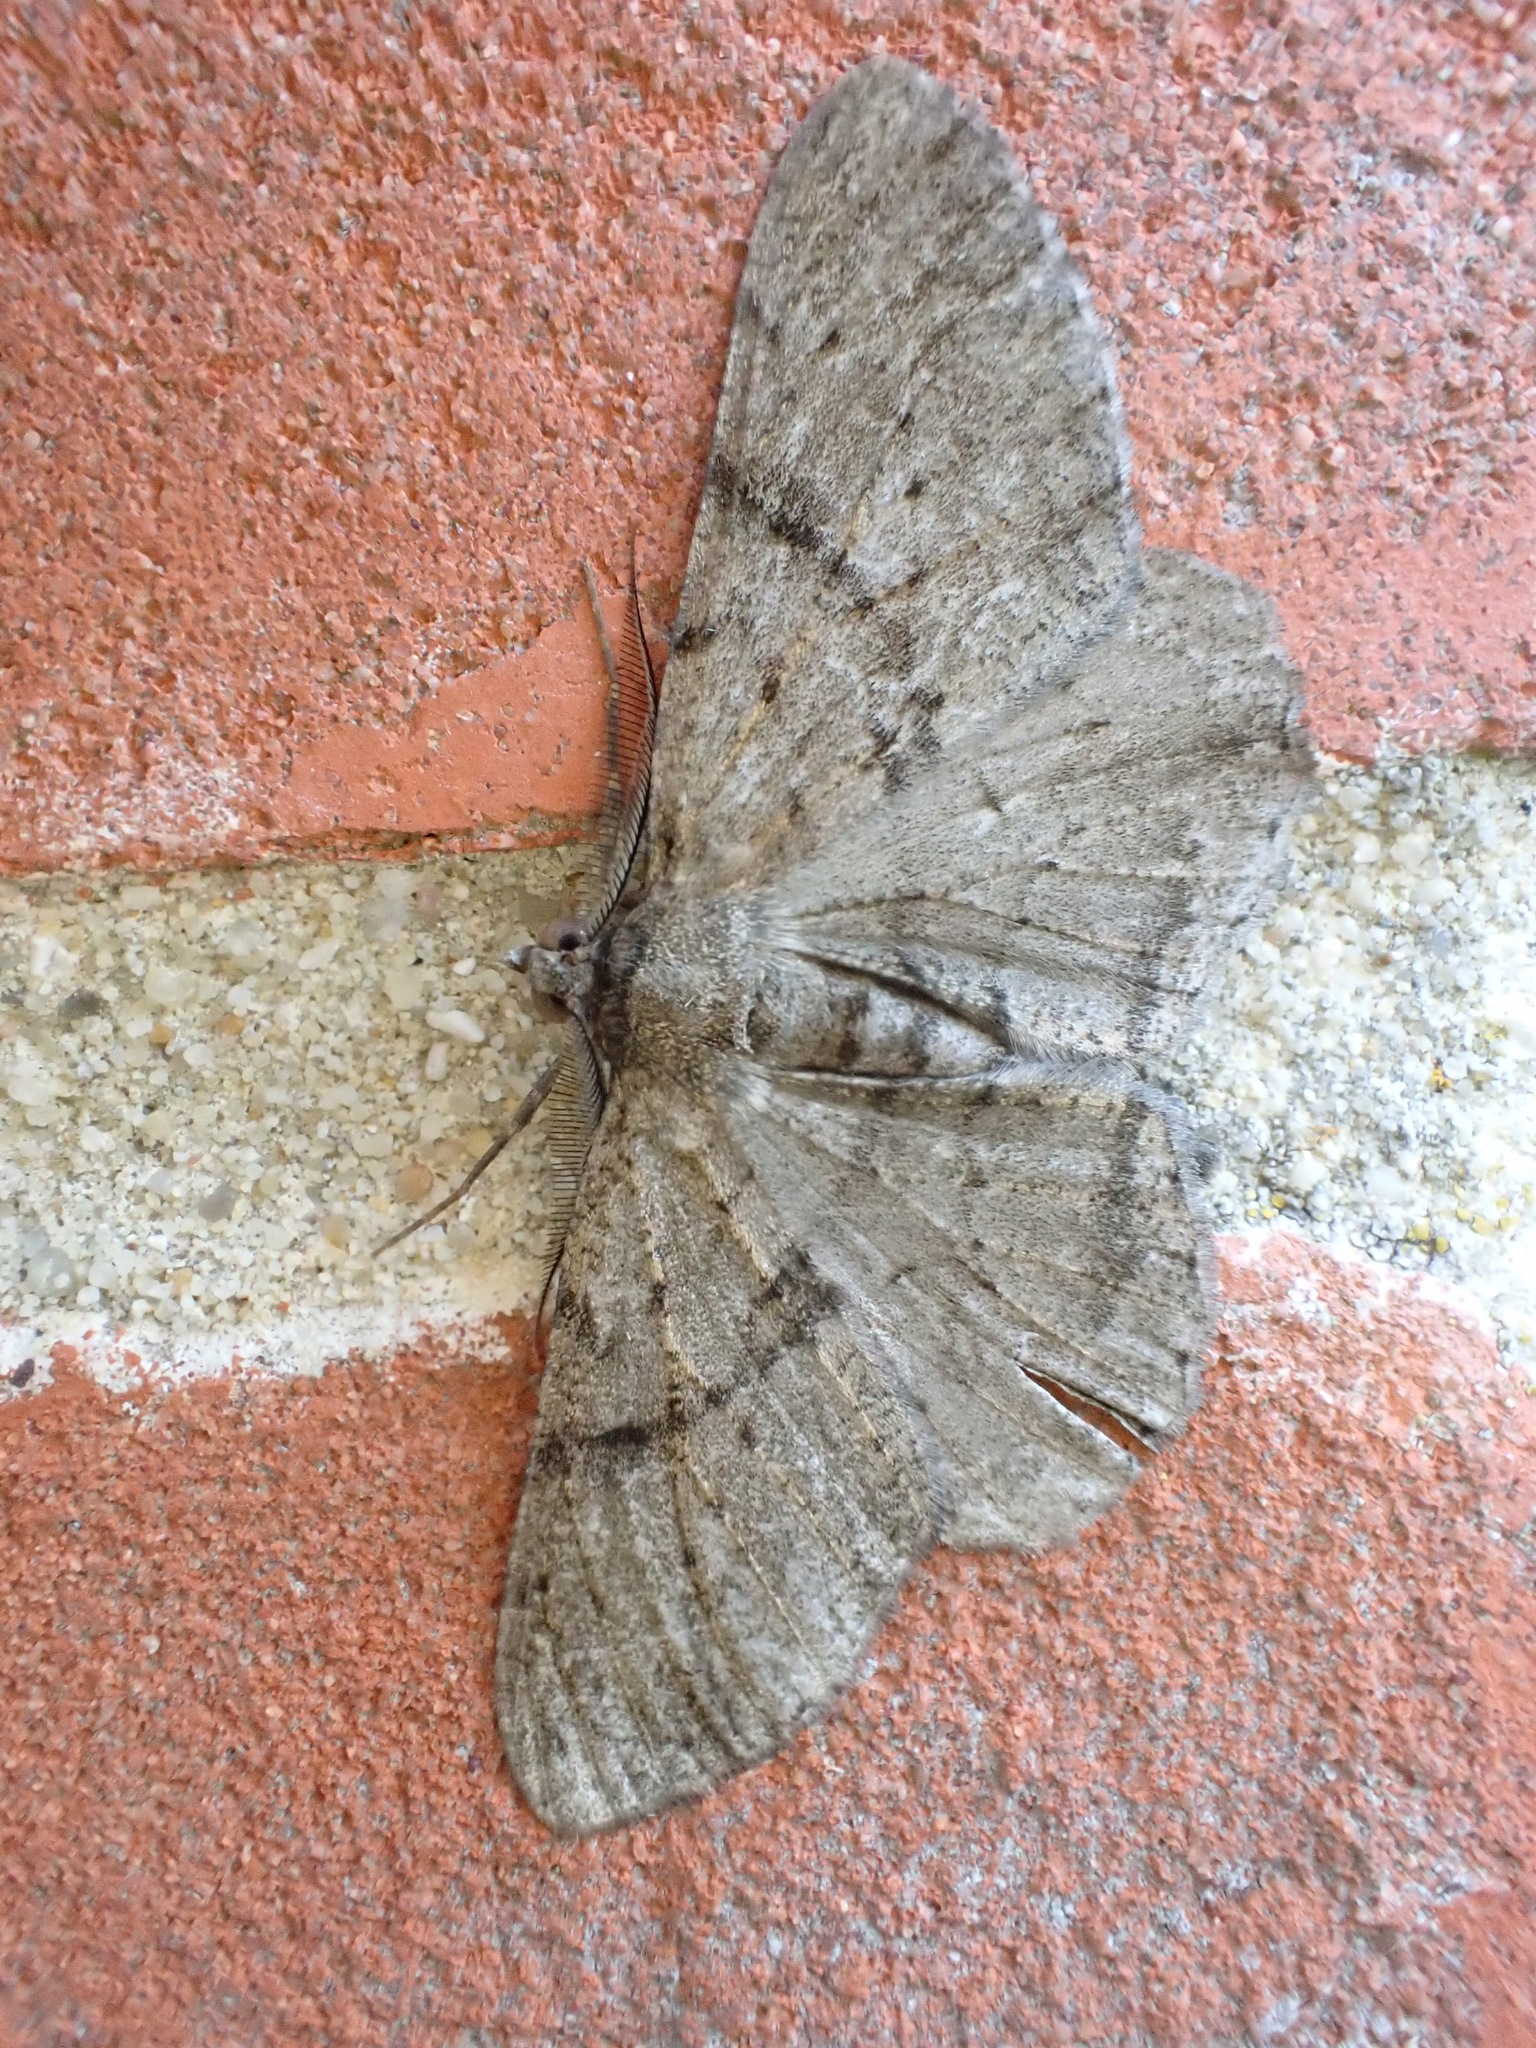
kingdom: Animalia
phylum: Arthropoda
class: Insecta
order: Lepidoptera
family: Geometridae
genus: Peribatodes
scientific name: Peribatodes rhomboidaria
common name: Willow beauty
